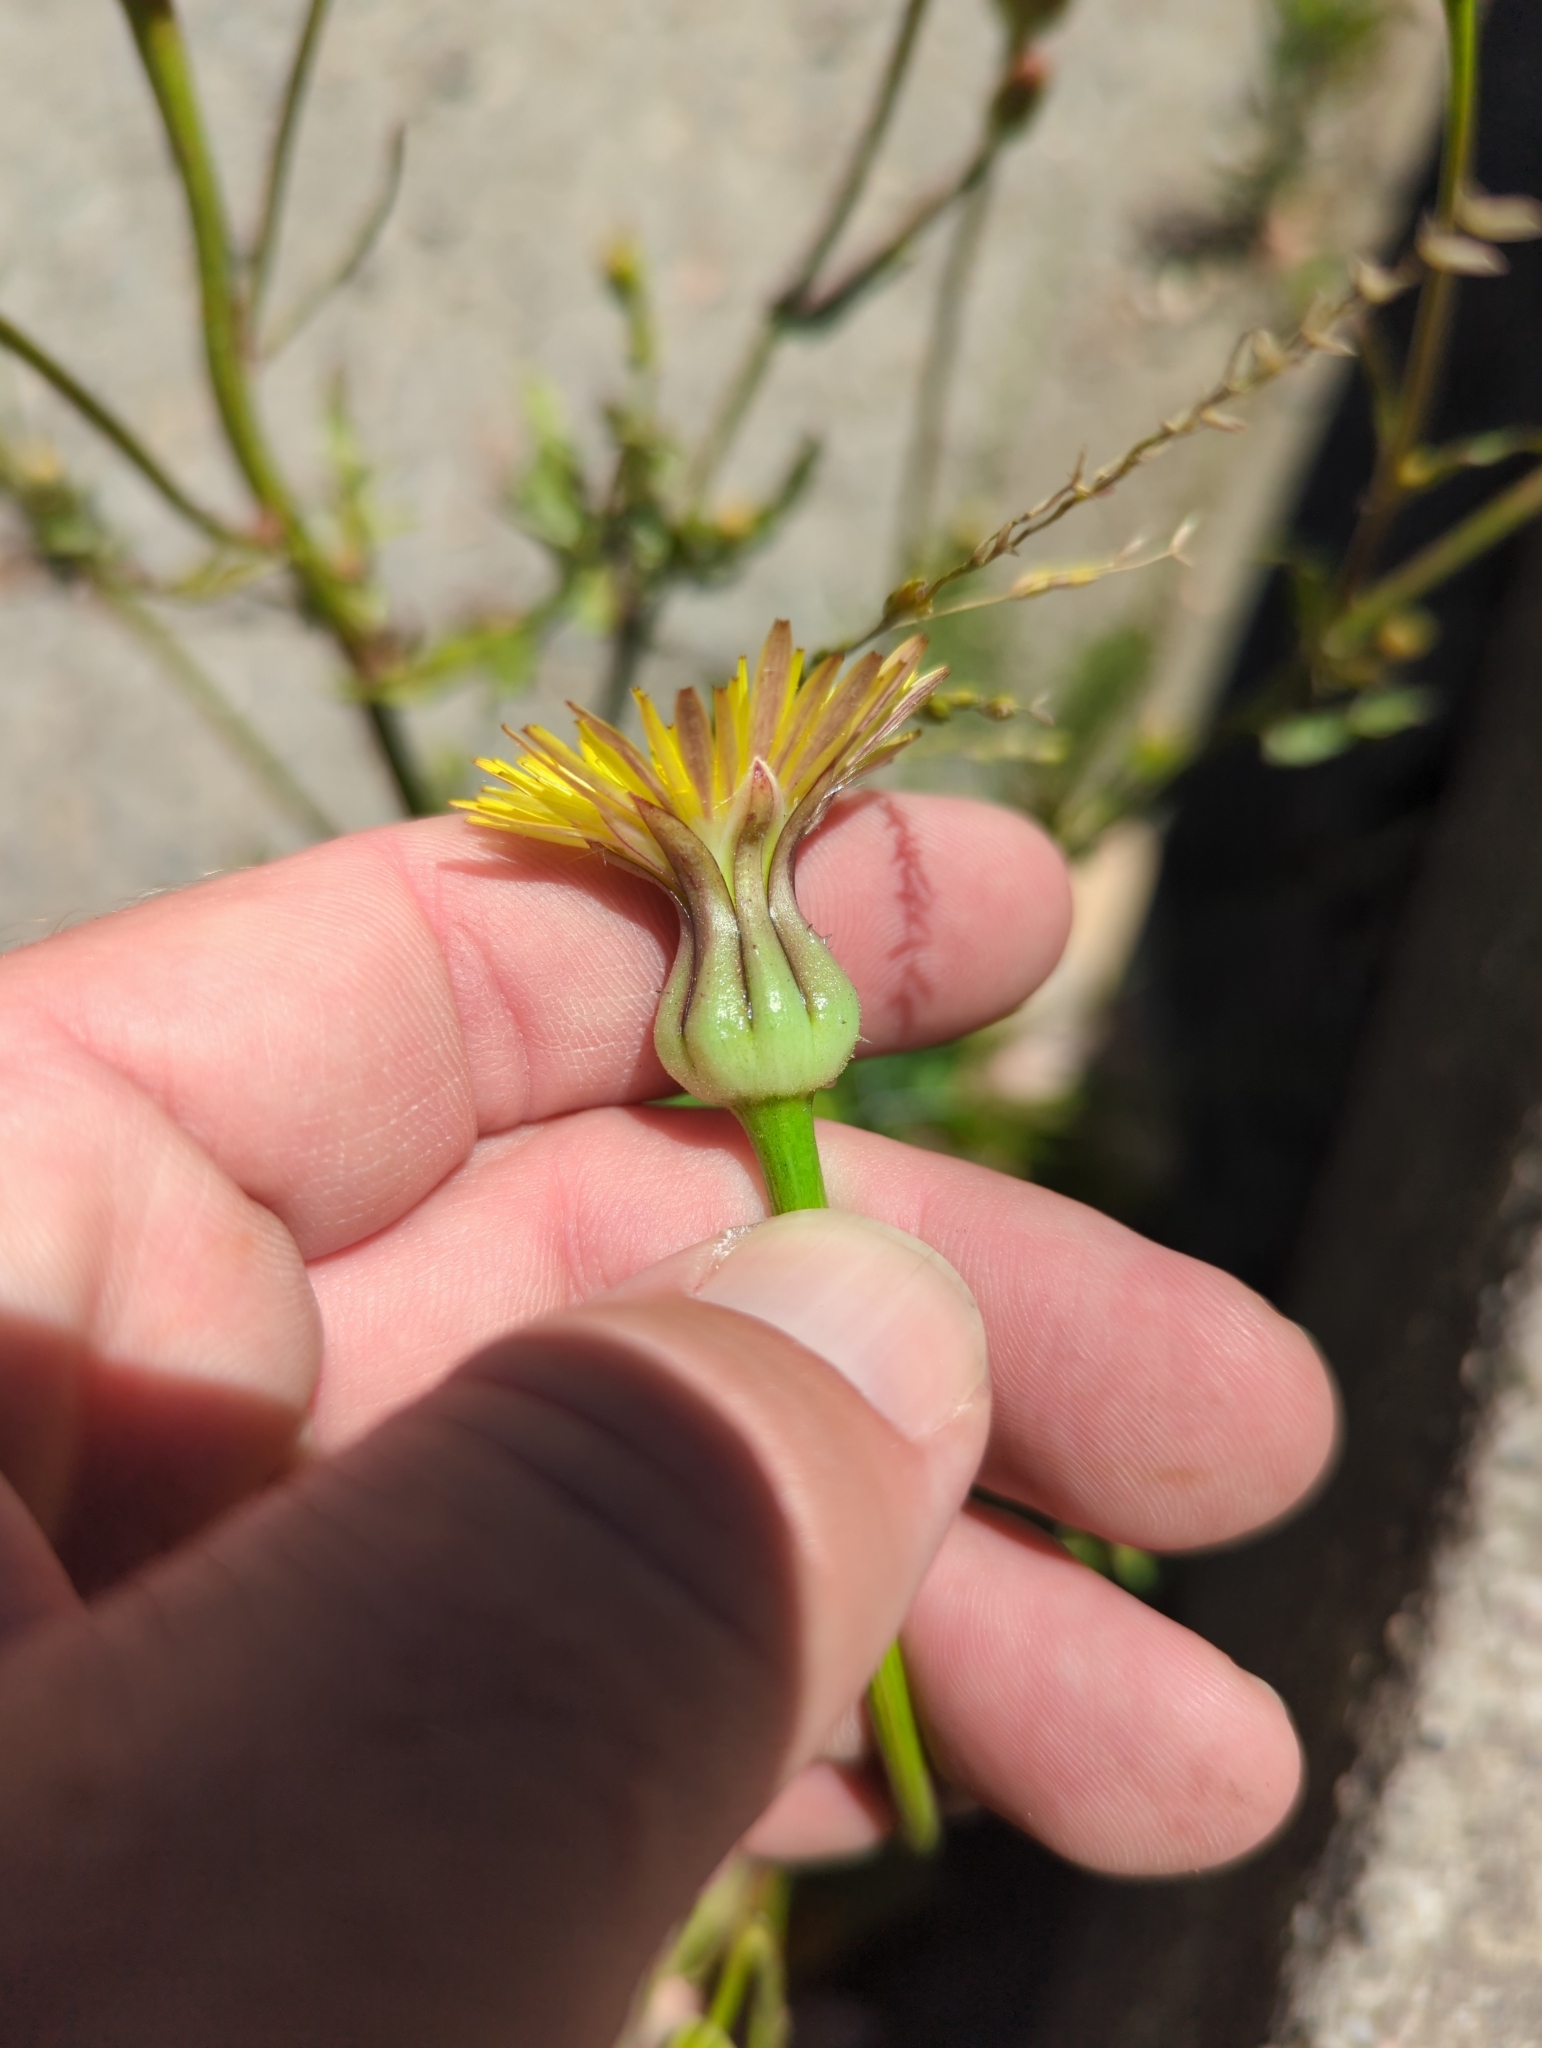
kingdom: Plantae
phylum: Tracheophyta
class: Magnoliopsida
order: Asterales
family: Asteraceae
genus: Urospermum
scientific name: Urospermum picroides
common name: False hawkbit
